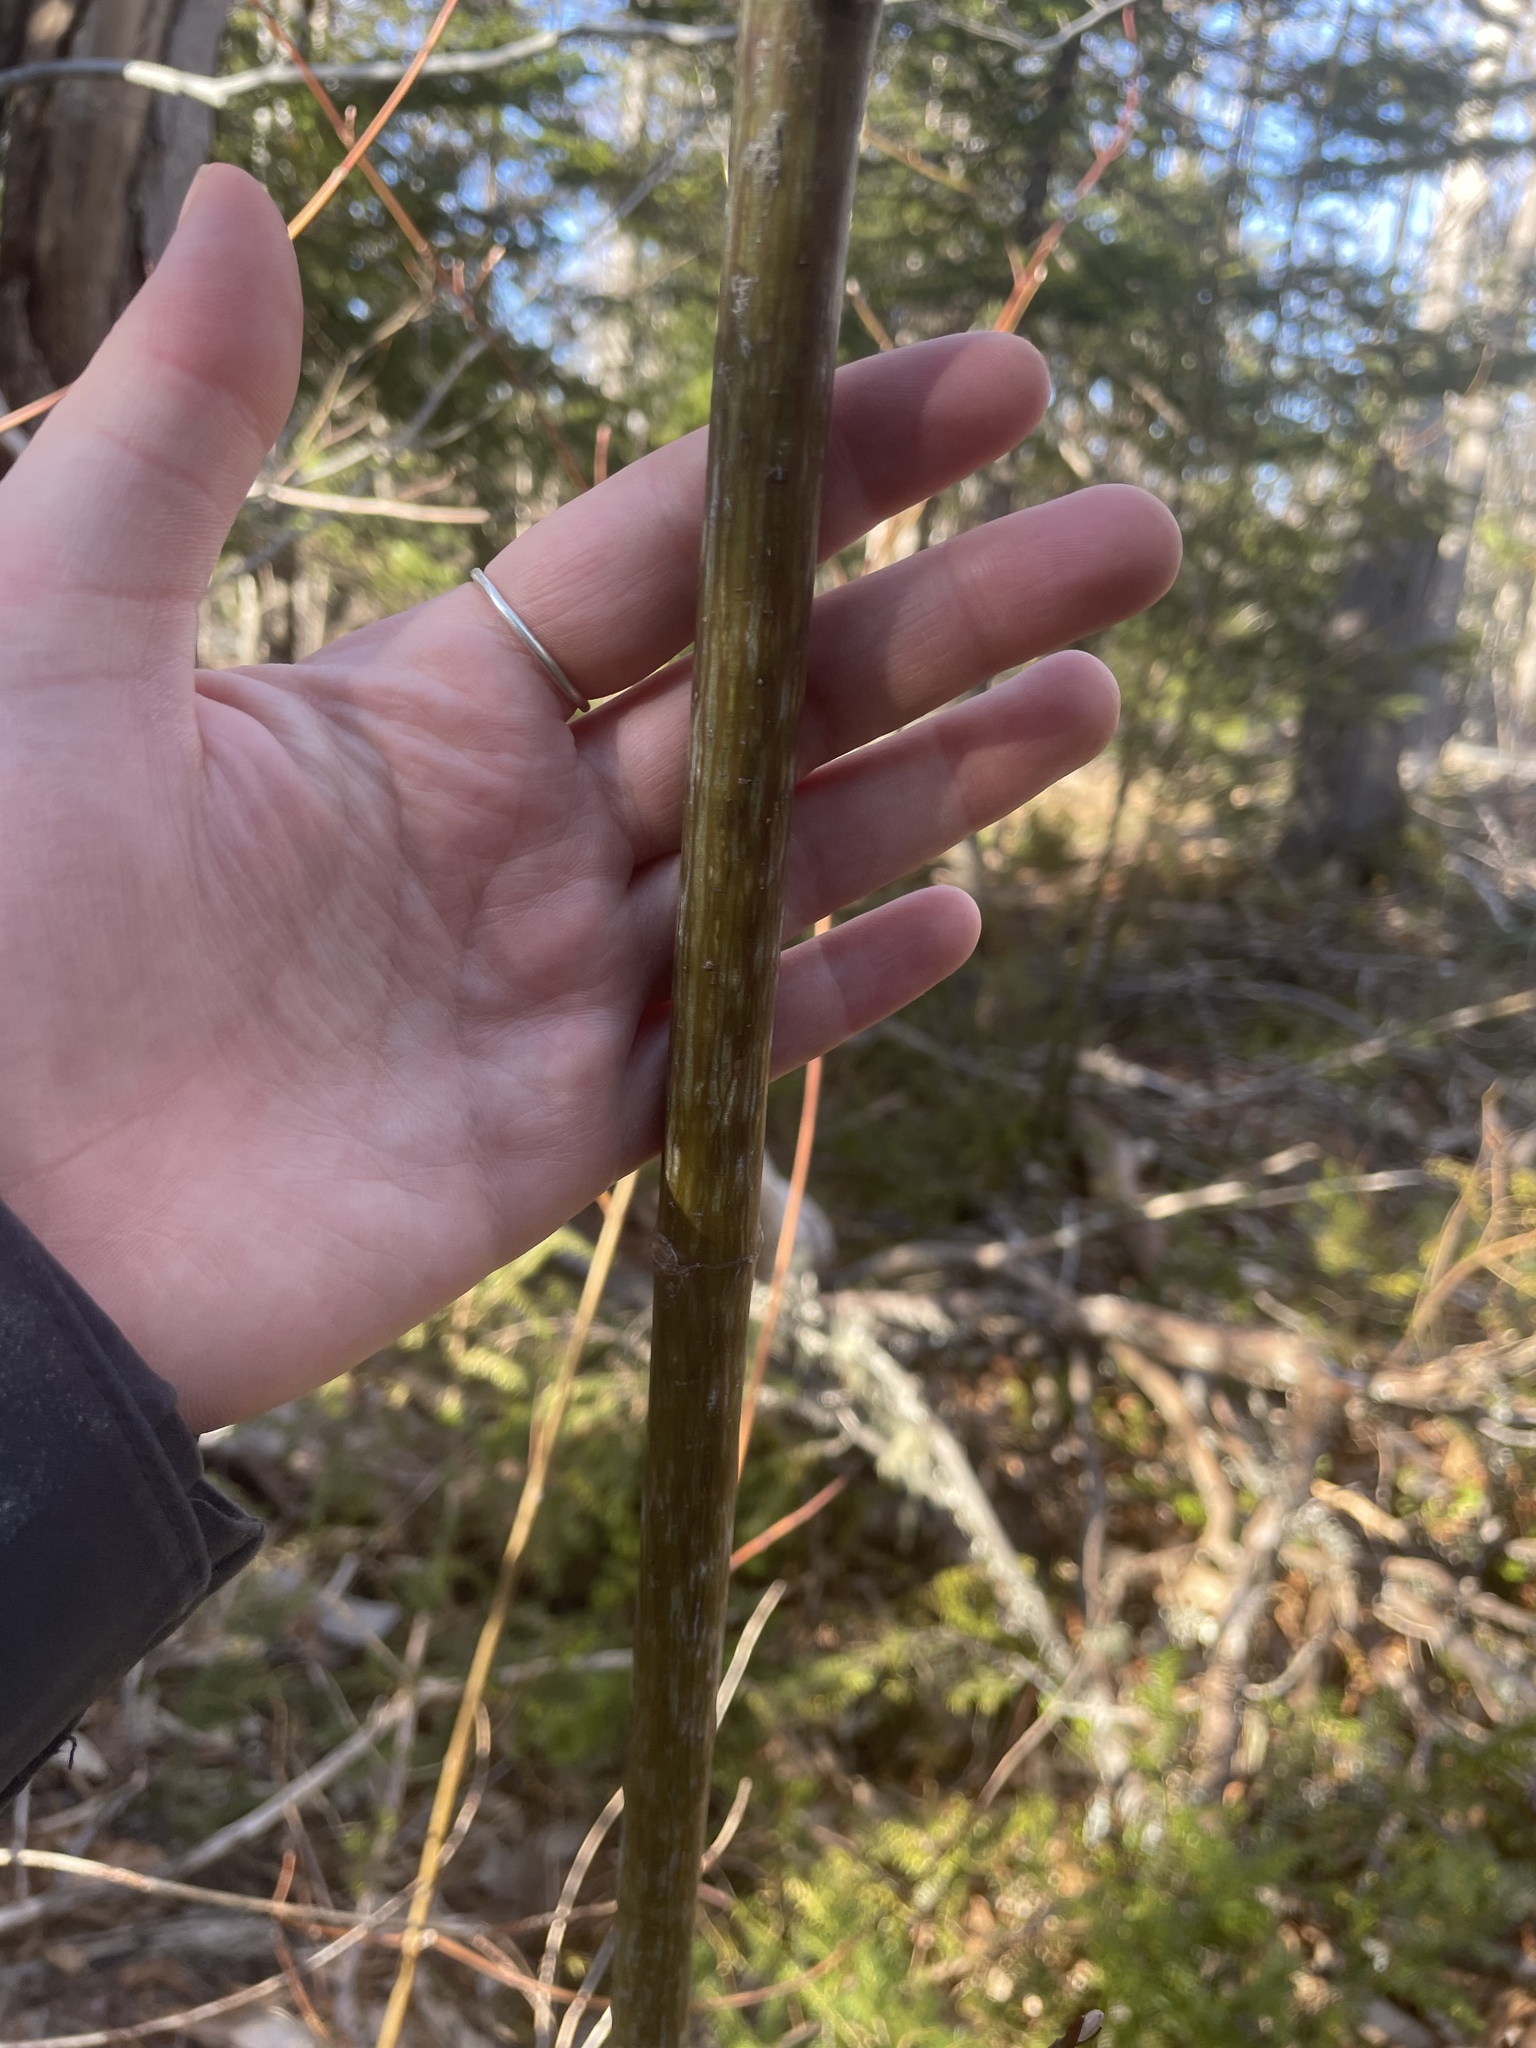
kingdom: Plantae
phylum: Tracheophyta
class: Magnoliopsida
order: Sapindales
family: Sapindaceae
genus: Acer
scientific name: Acer pensylvanicum
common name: Moosewood
